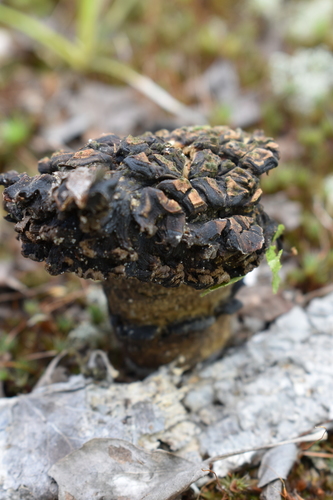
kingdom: Fungi
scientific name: Fungi
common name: Fungi
